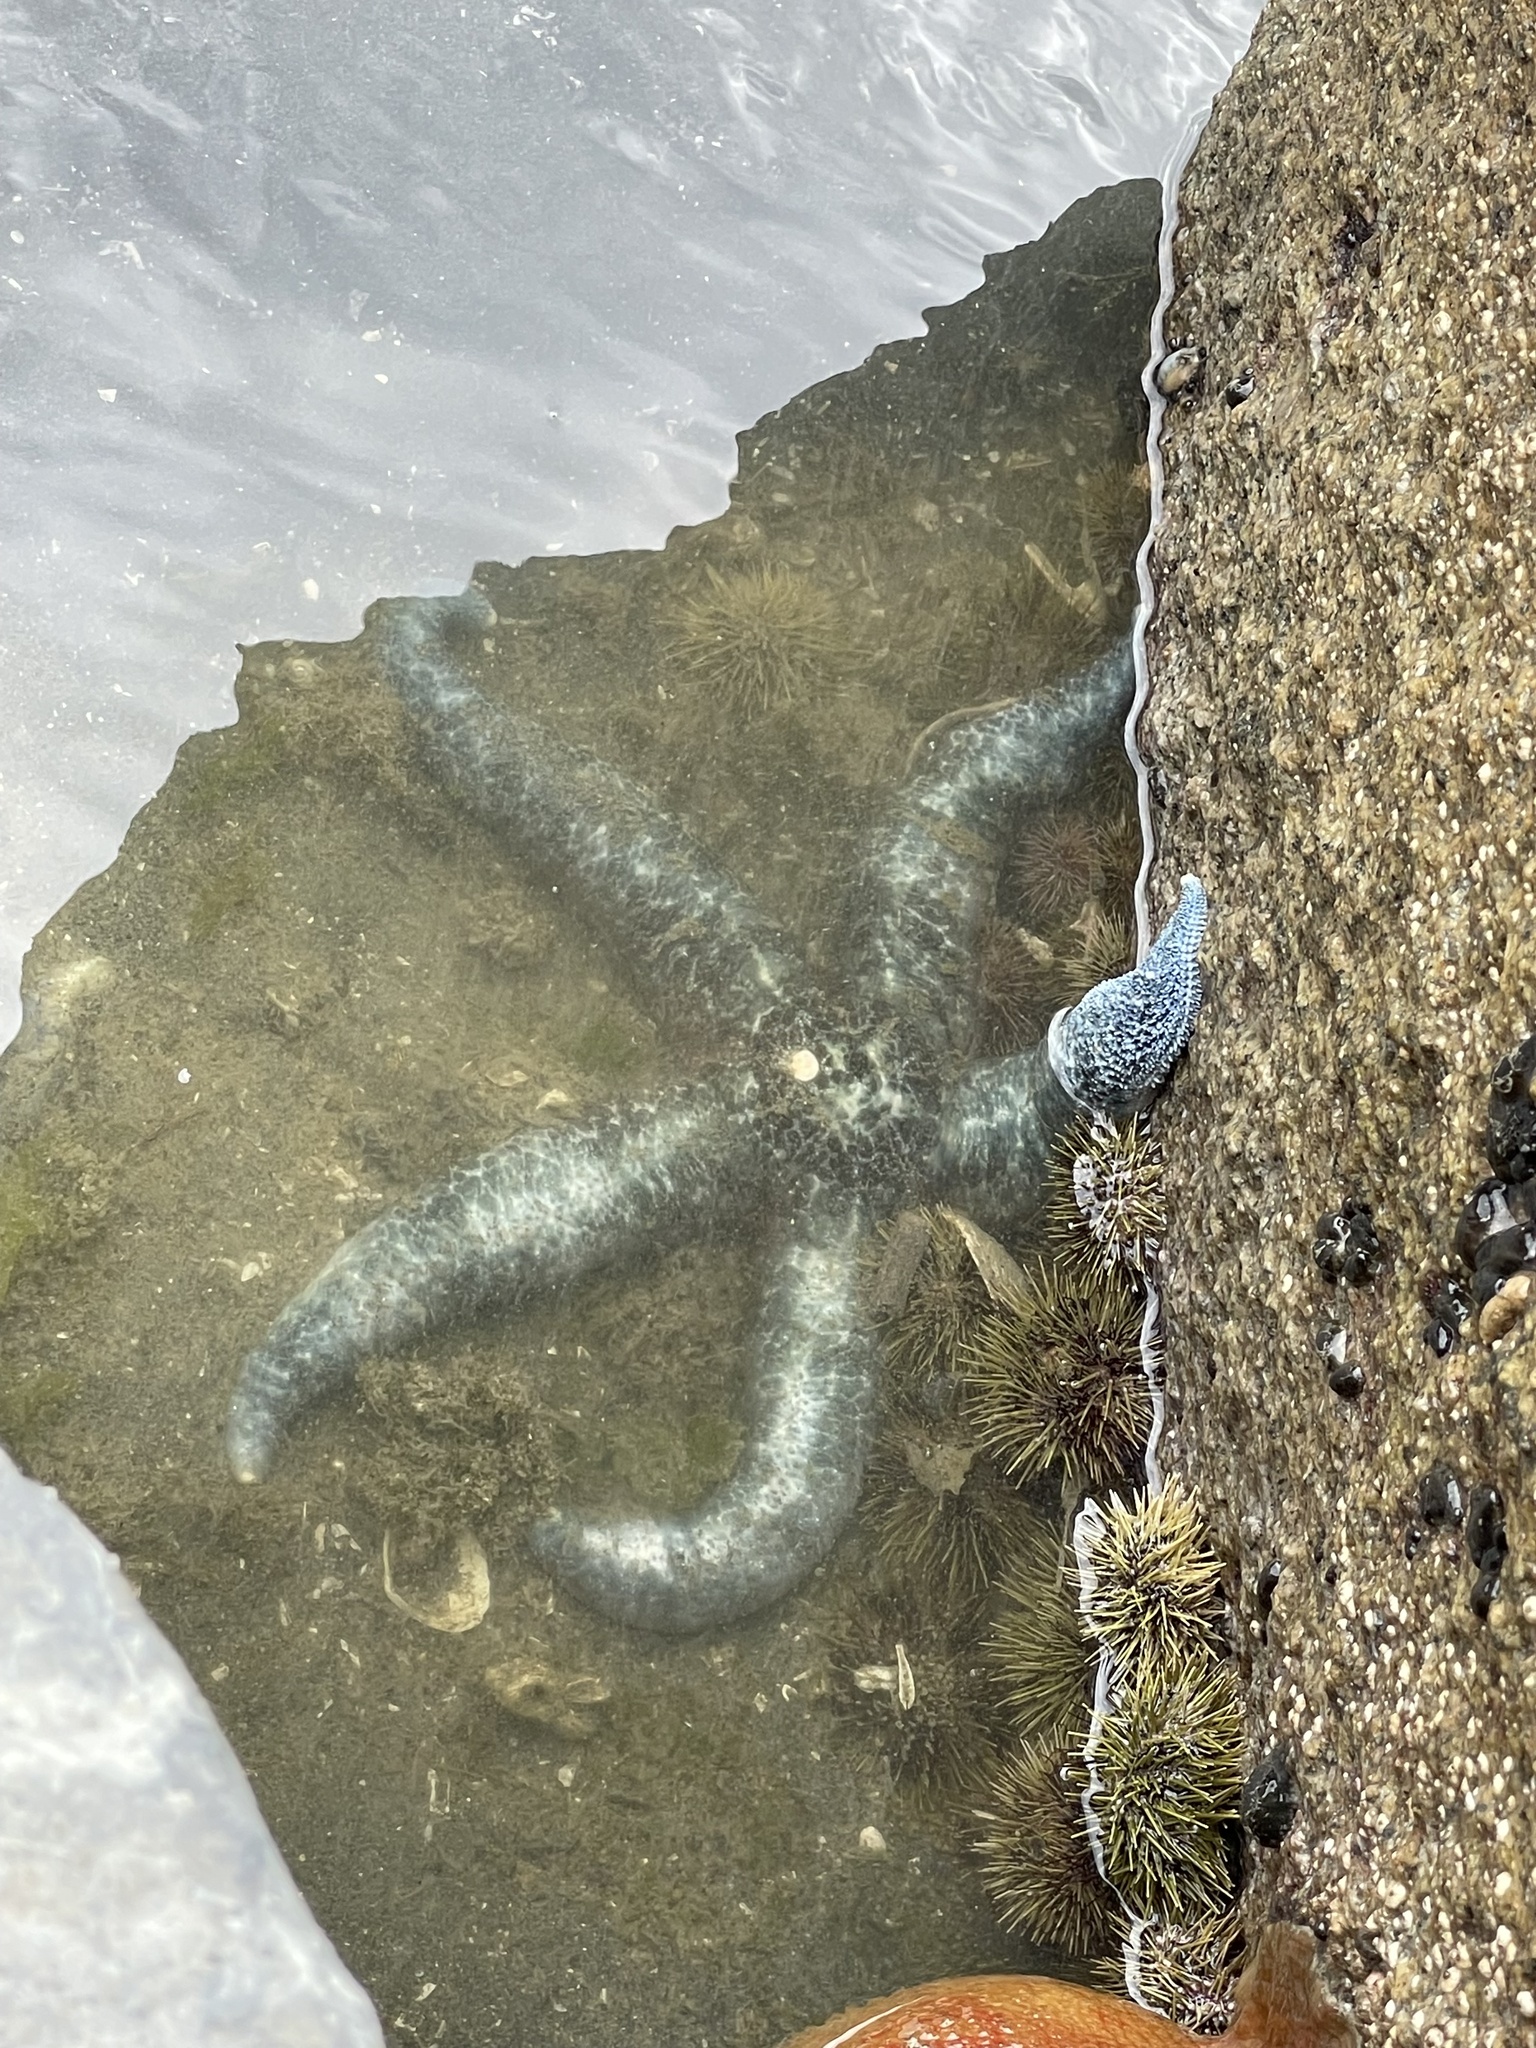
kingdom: Animalia
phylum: Echinodermata
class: Asteroidea
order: Forcipulatida
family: Asteriidae
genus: Evasterias
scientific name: Evasterias troschelii
